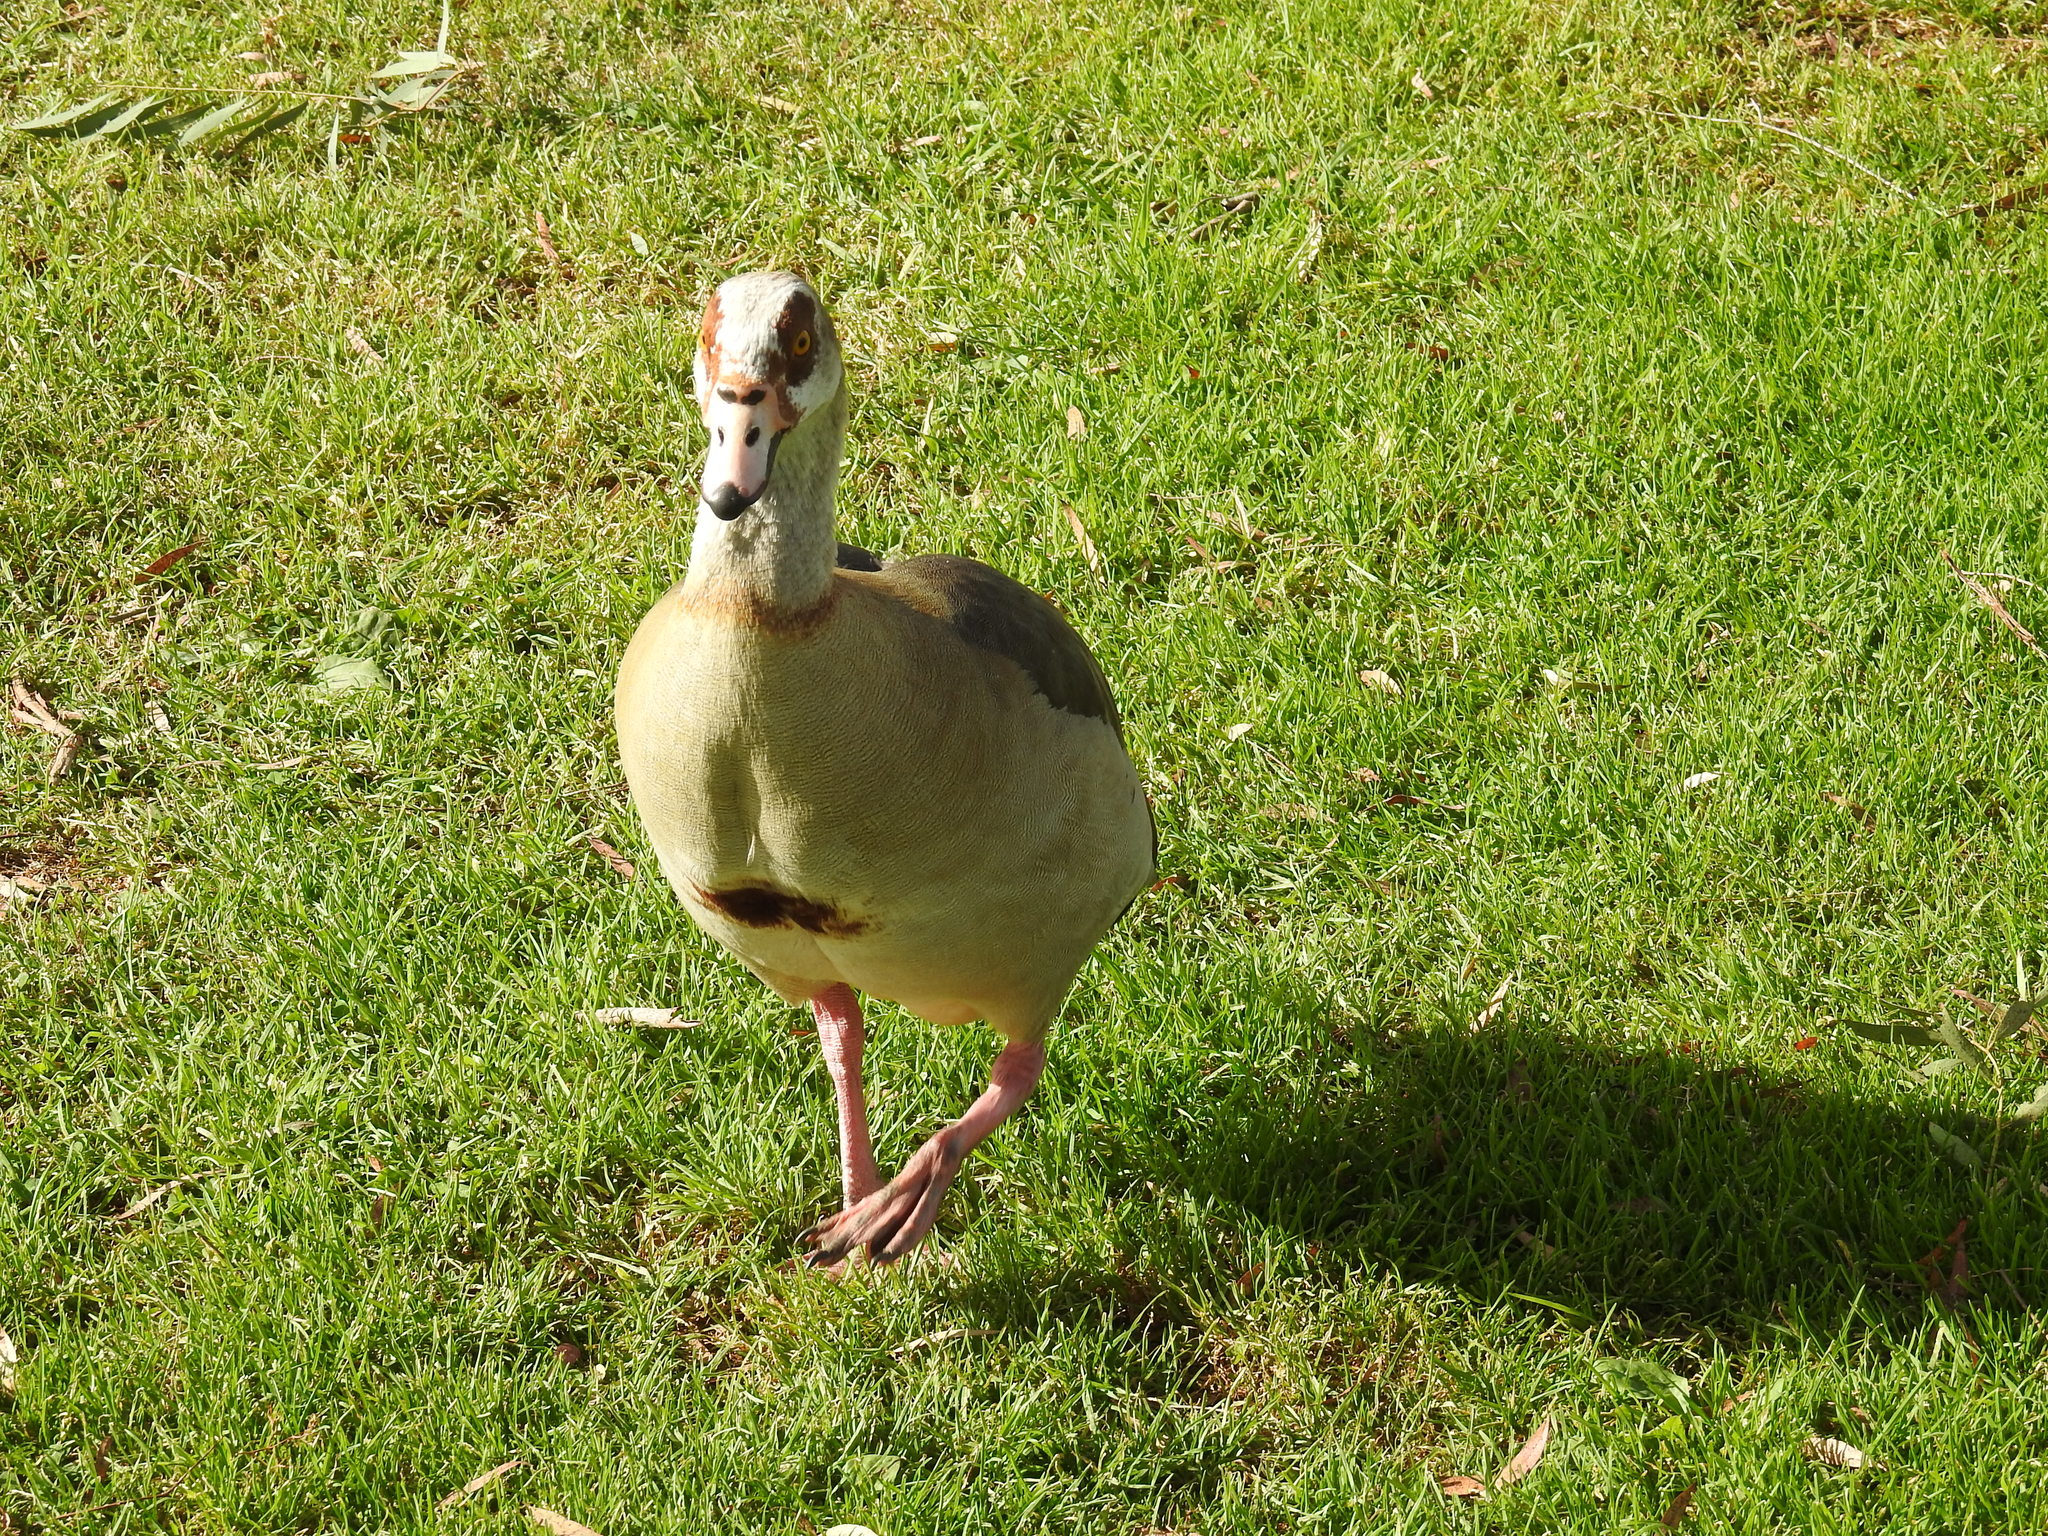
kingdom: Animalia
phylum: Chordata
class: Aves
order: Anseriformes
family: Anatidae
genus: Alopochen
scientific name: Alopochen aegyptiaca
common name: Egyptian goose
